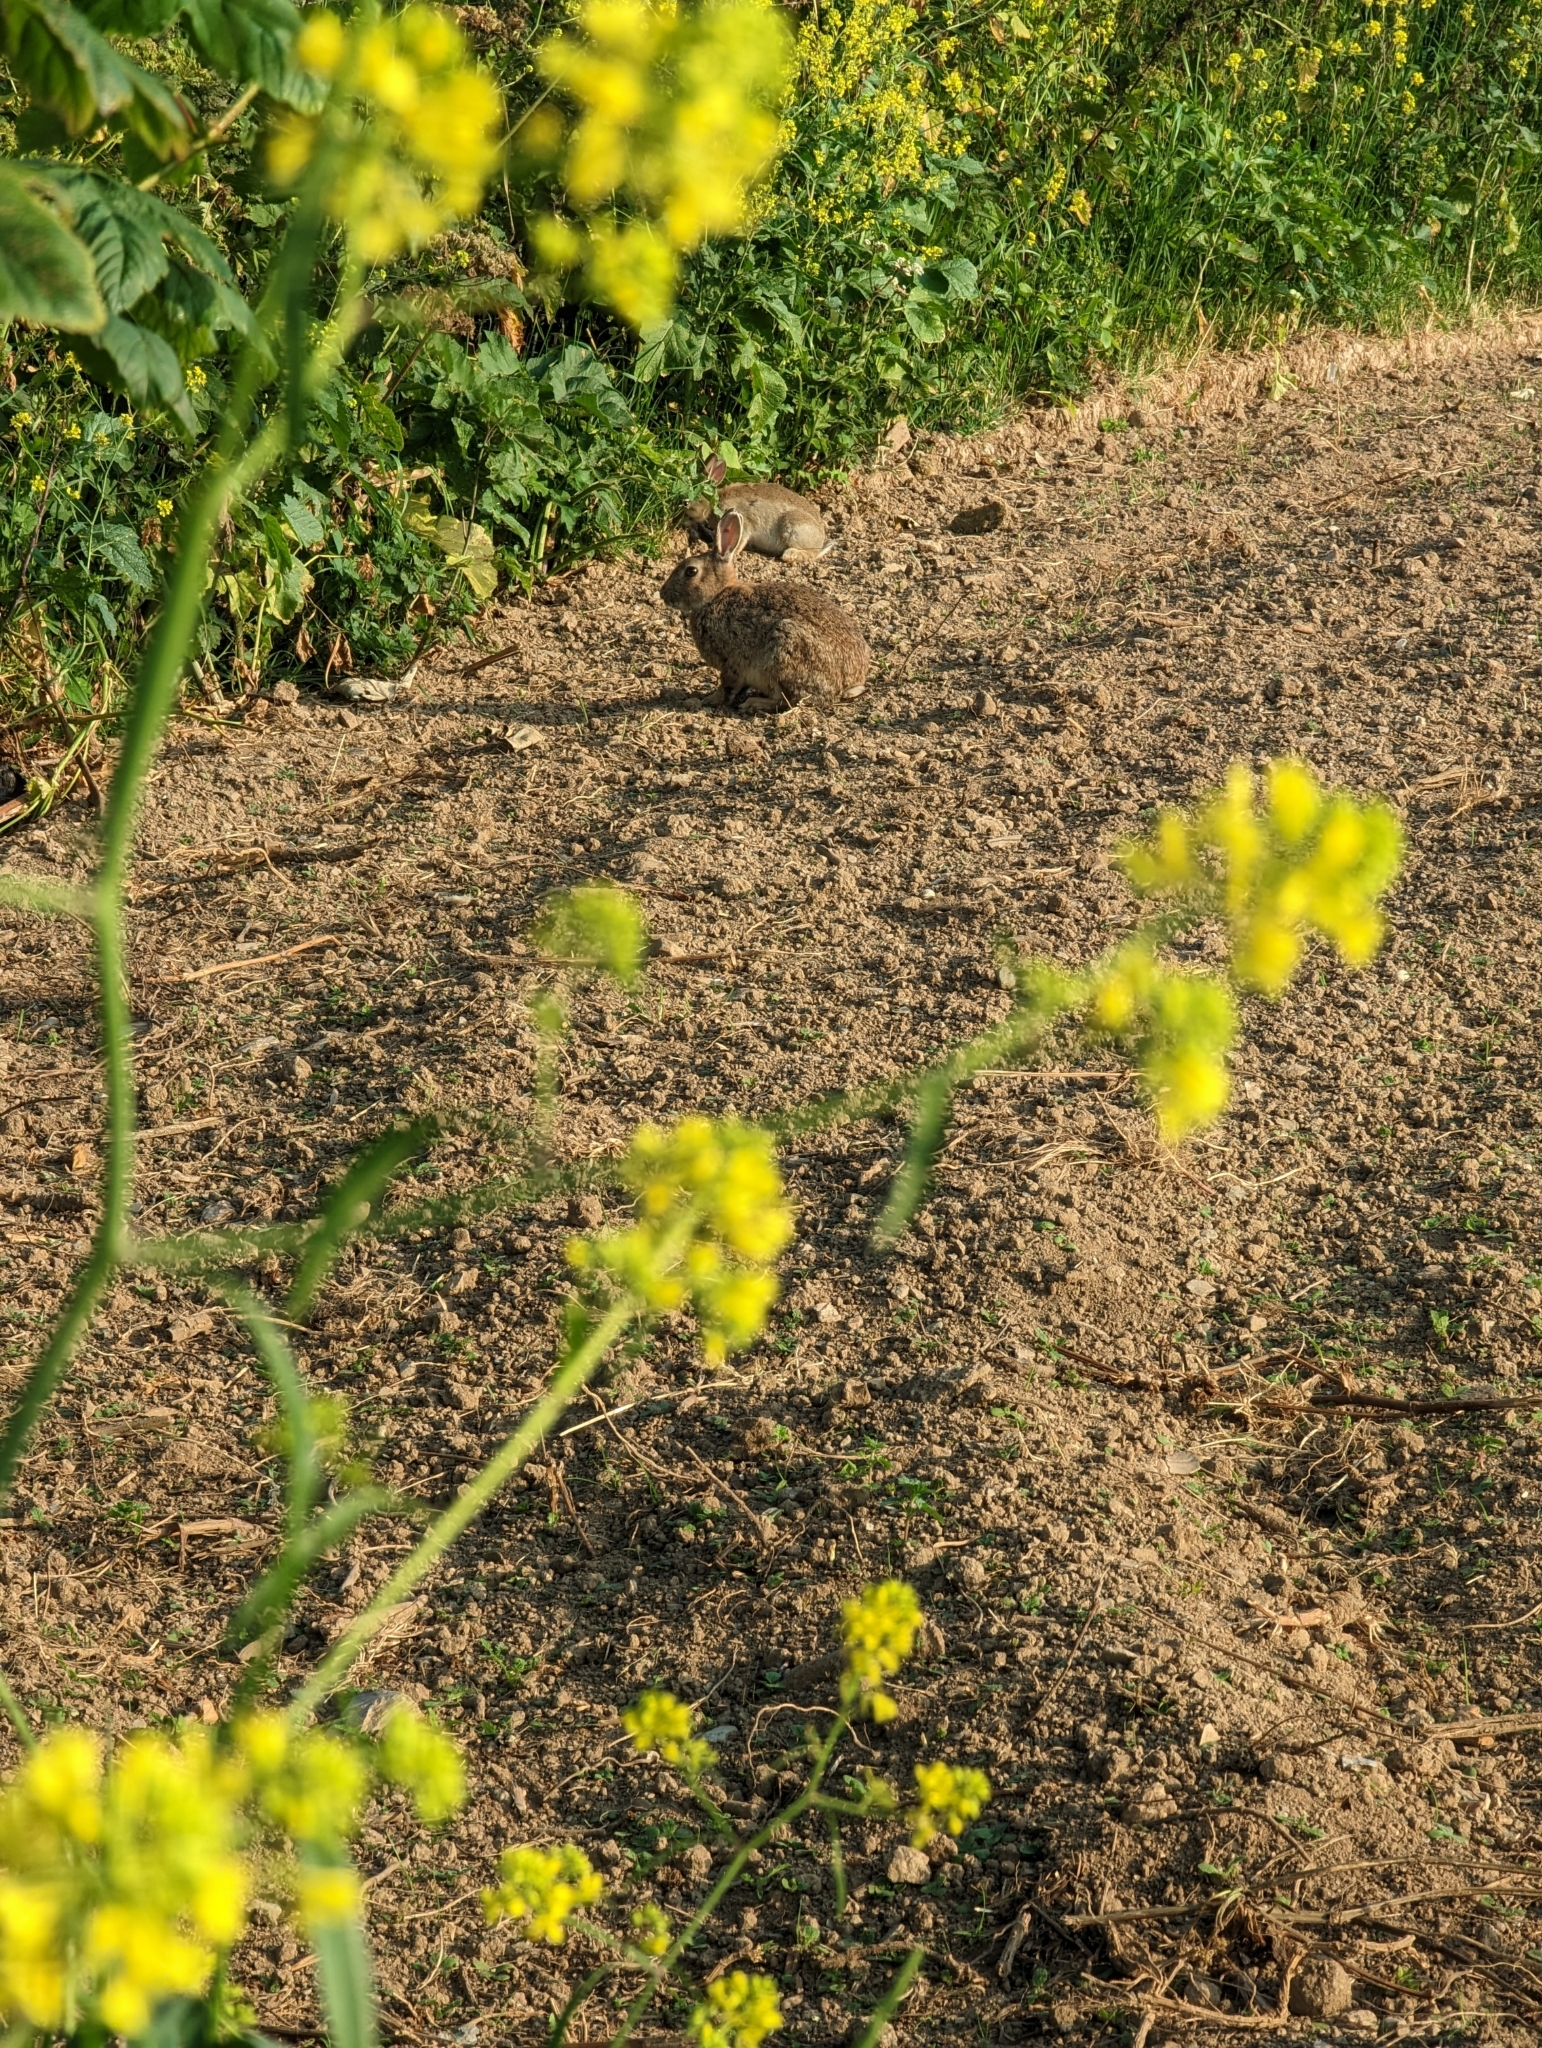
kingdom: Animalia
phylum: Chordata
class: Mammalia
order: Lagomorpha
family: Leporidae
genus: Oryctolagus
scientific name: Oryctolagus cuniculus
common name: European rabbit
